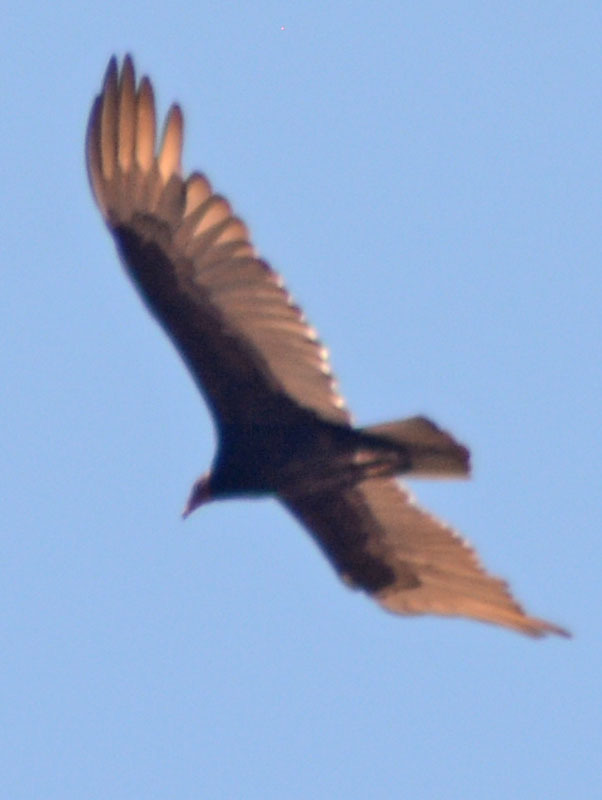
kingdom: Animalia
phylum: Chordata
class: Aves
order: Accipitriformes
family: Cathartidae
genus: Cathartes
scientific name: Cathartes aura
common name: Turkey vulture
